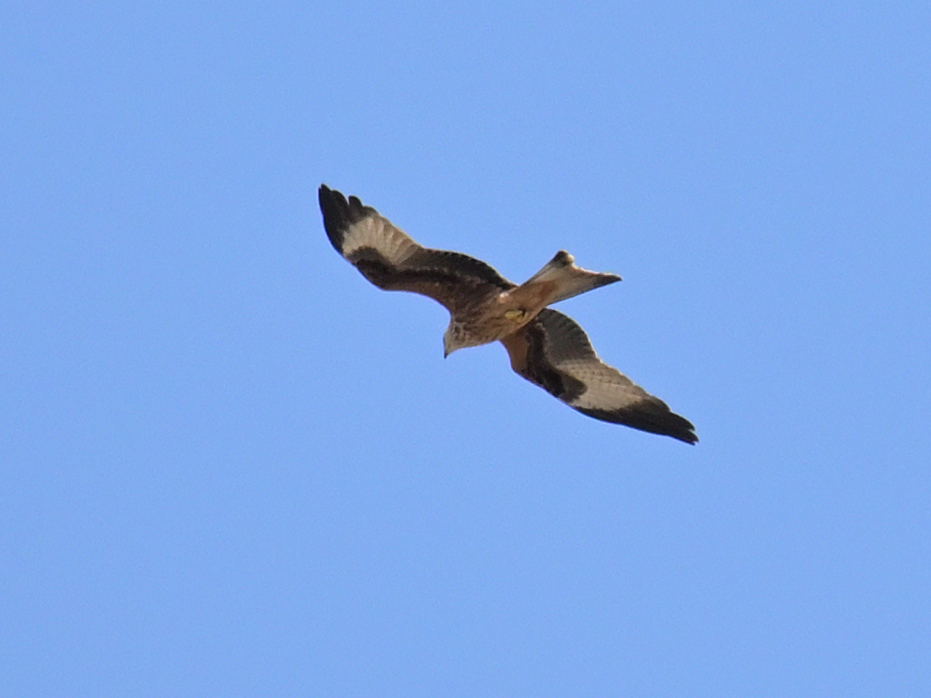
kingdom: Animalia
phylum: Chordata
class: Aves
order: Accipitriformes
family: Accipitridae
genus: Milvus
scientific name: Milvus milvus
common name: Red kite
